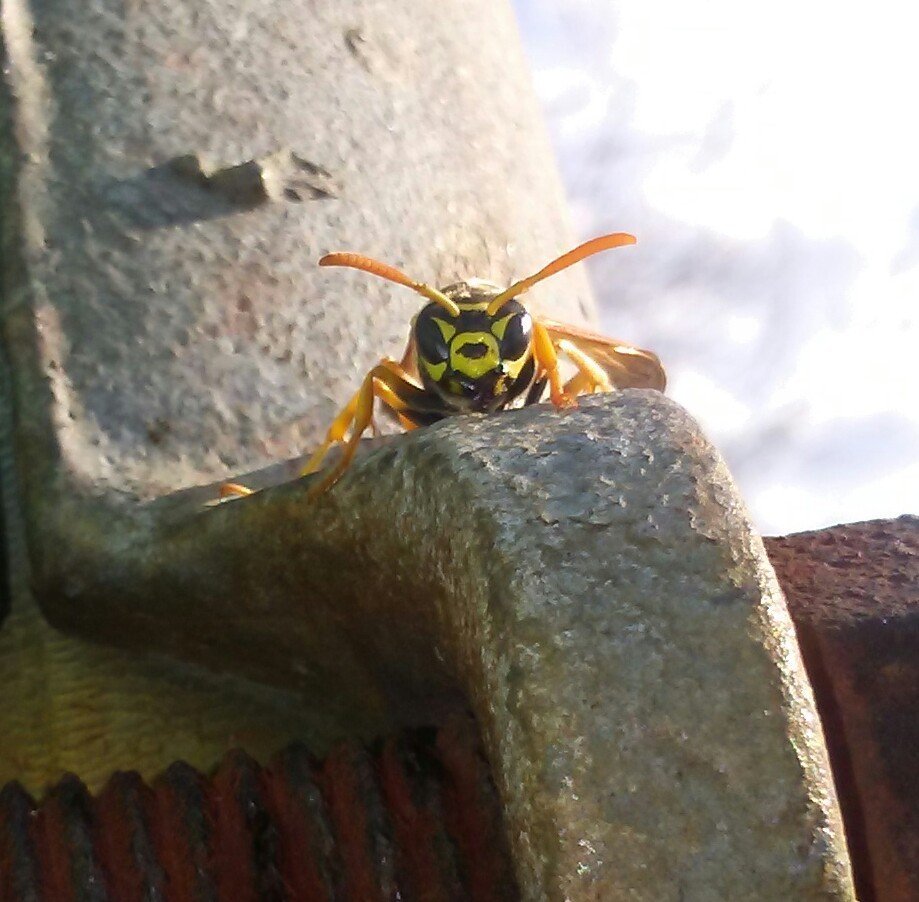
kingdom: Animalia
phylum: Arthropoda
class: Insecta
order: Hymenoptera
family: Eumenidae
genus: Polistes
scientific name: Polistes dominula
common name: Paper wasp
